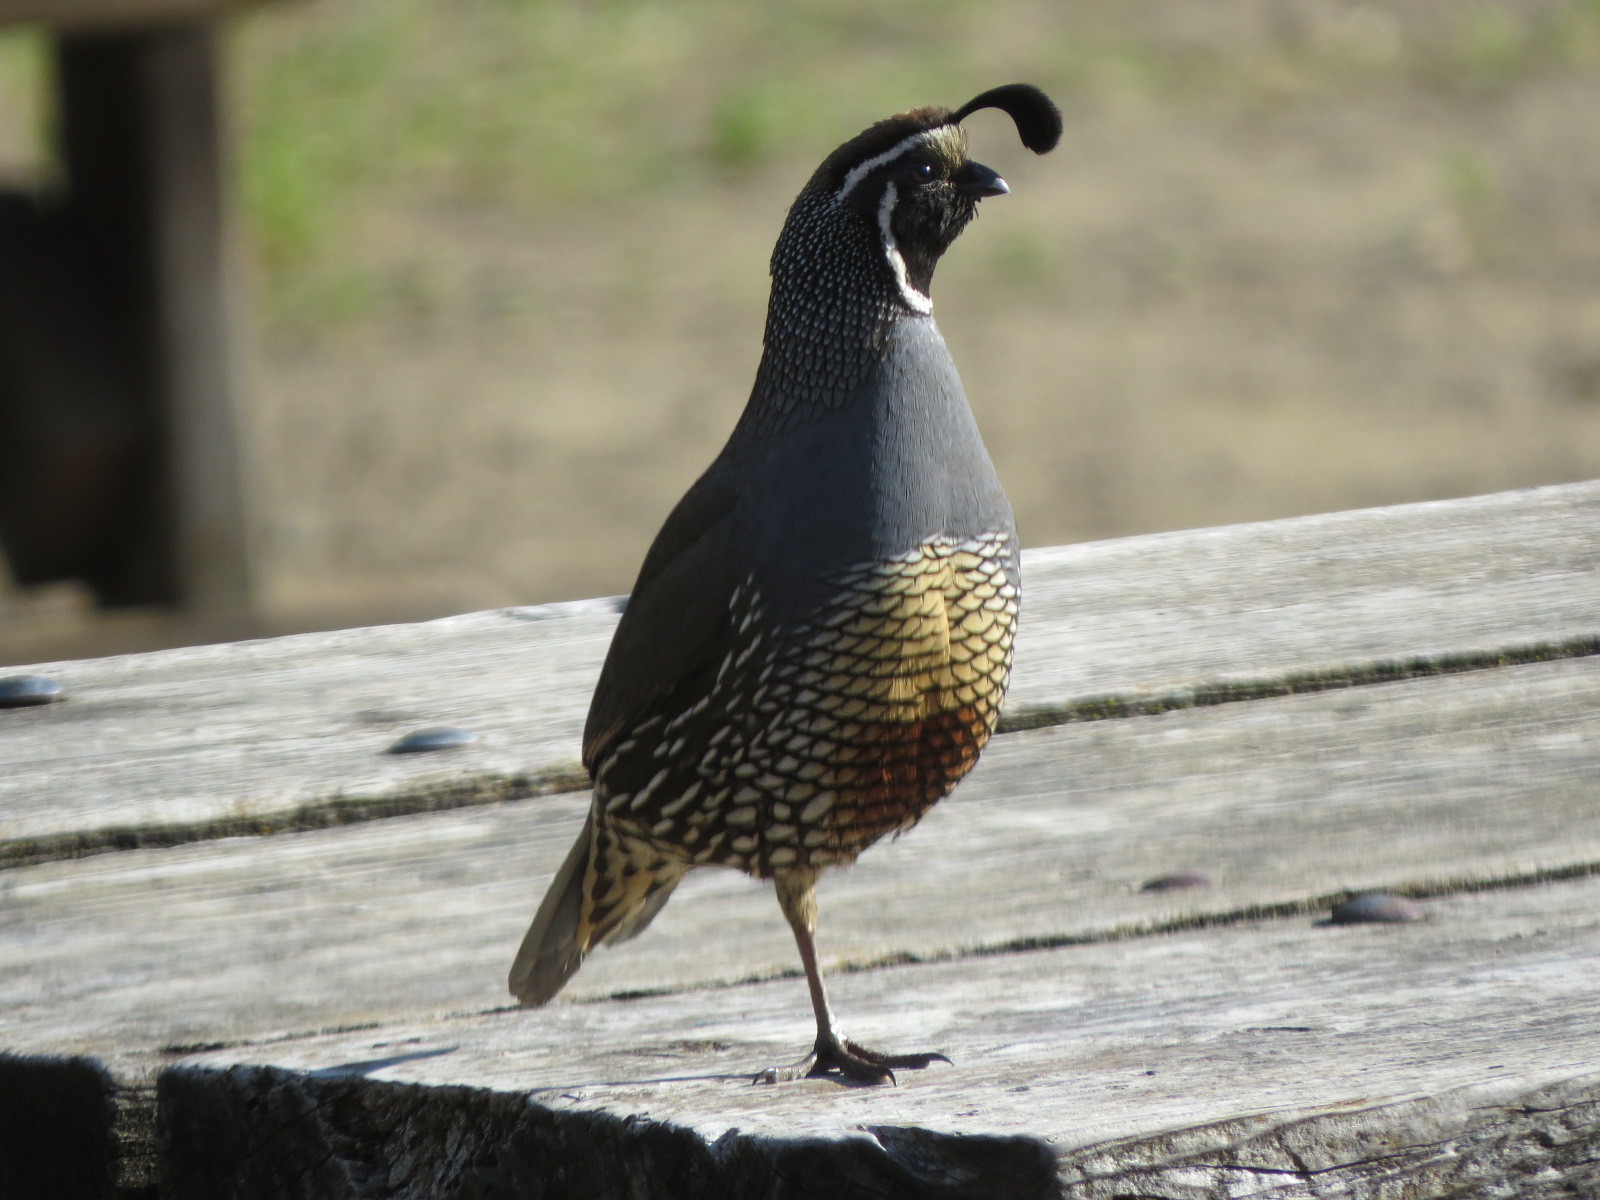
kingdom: Animalia
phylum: Chordata
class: Aves
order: Galliformes
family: Odontophoridae
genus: Callipepla
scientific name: Callipepla californica
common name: California quail
